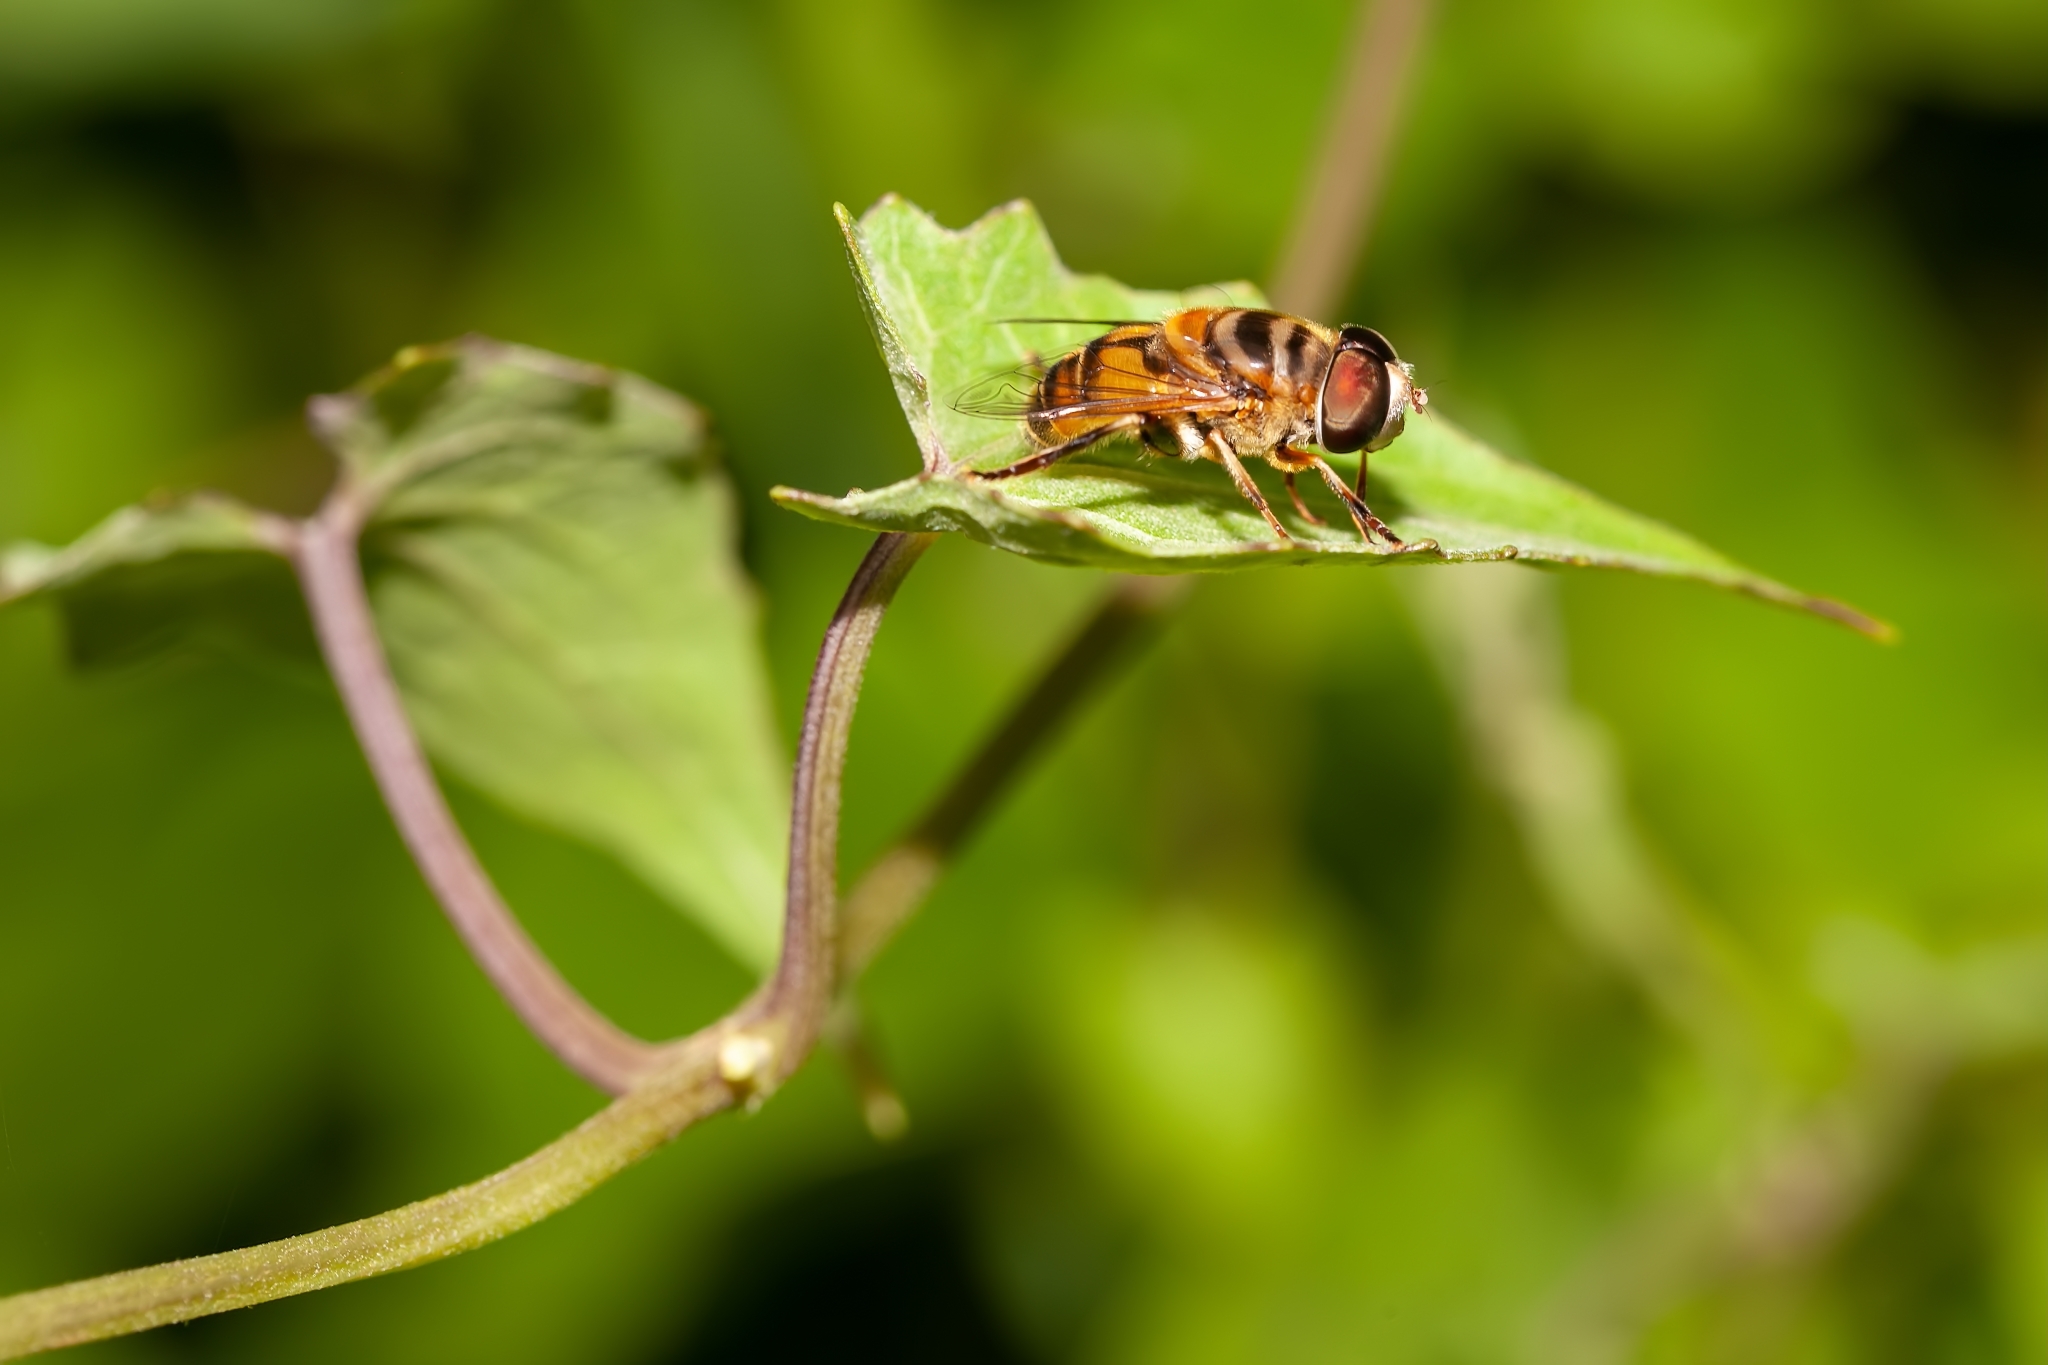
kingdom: Animalia
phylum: Arthropoda
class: Insecta
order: Diptera
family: Syrphidae
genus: Palpada
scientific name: Palpada vinetorum
